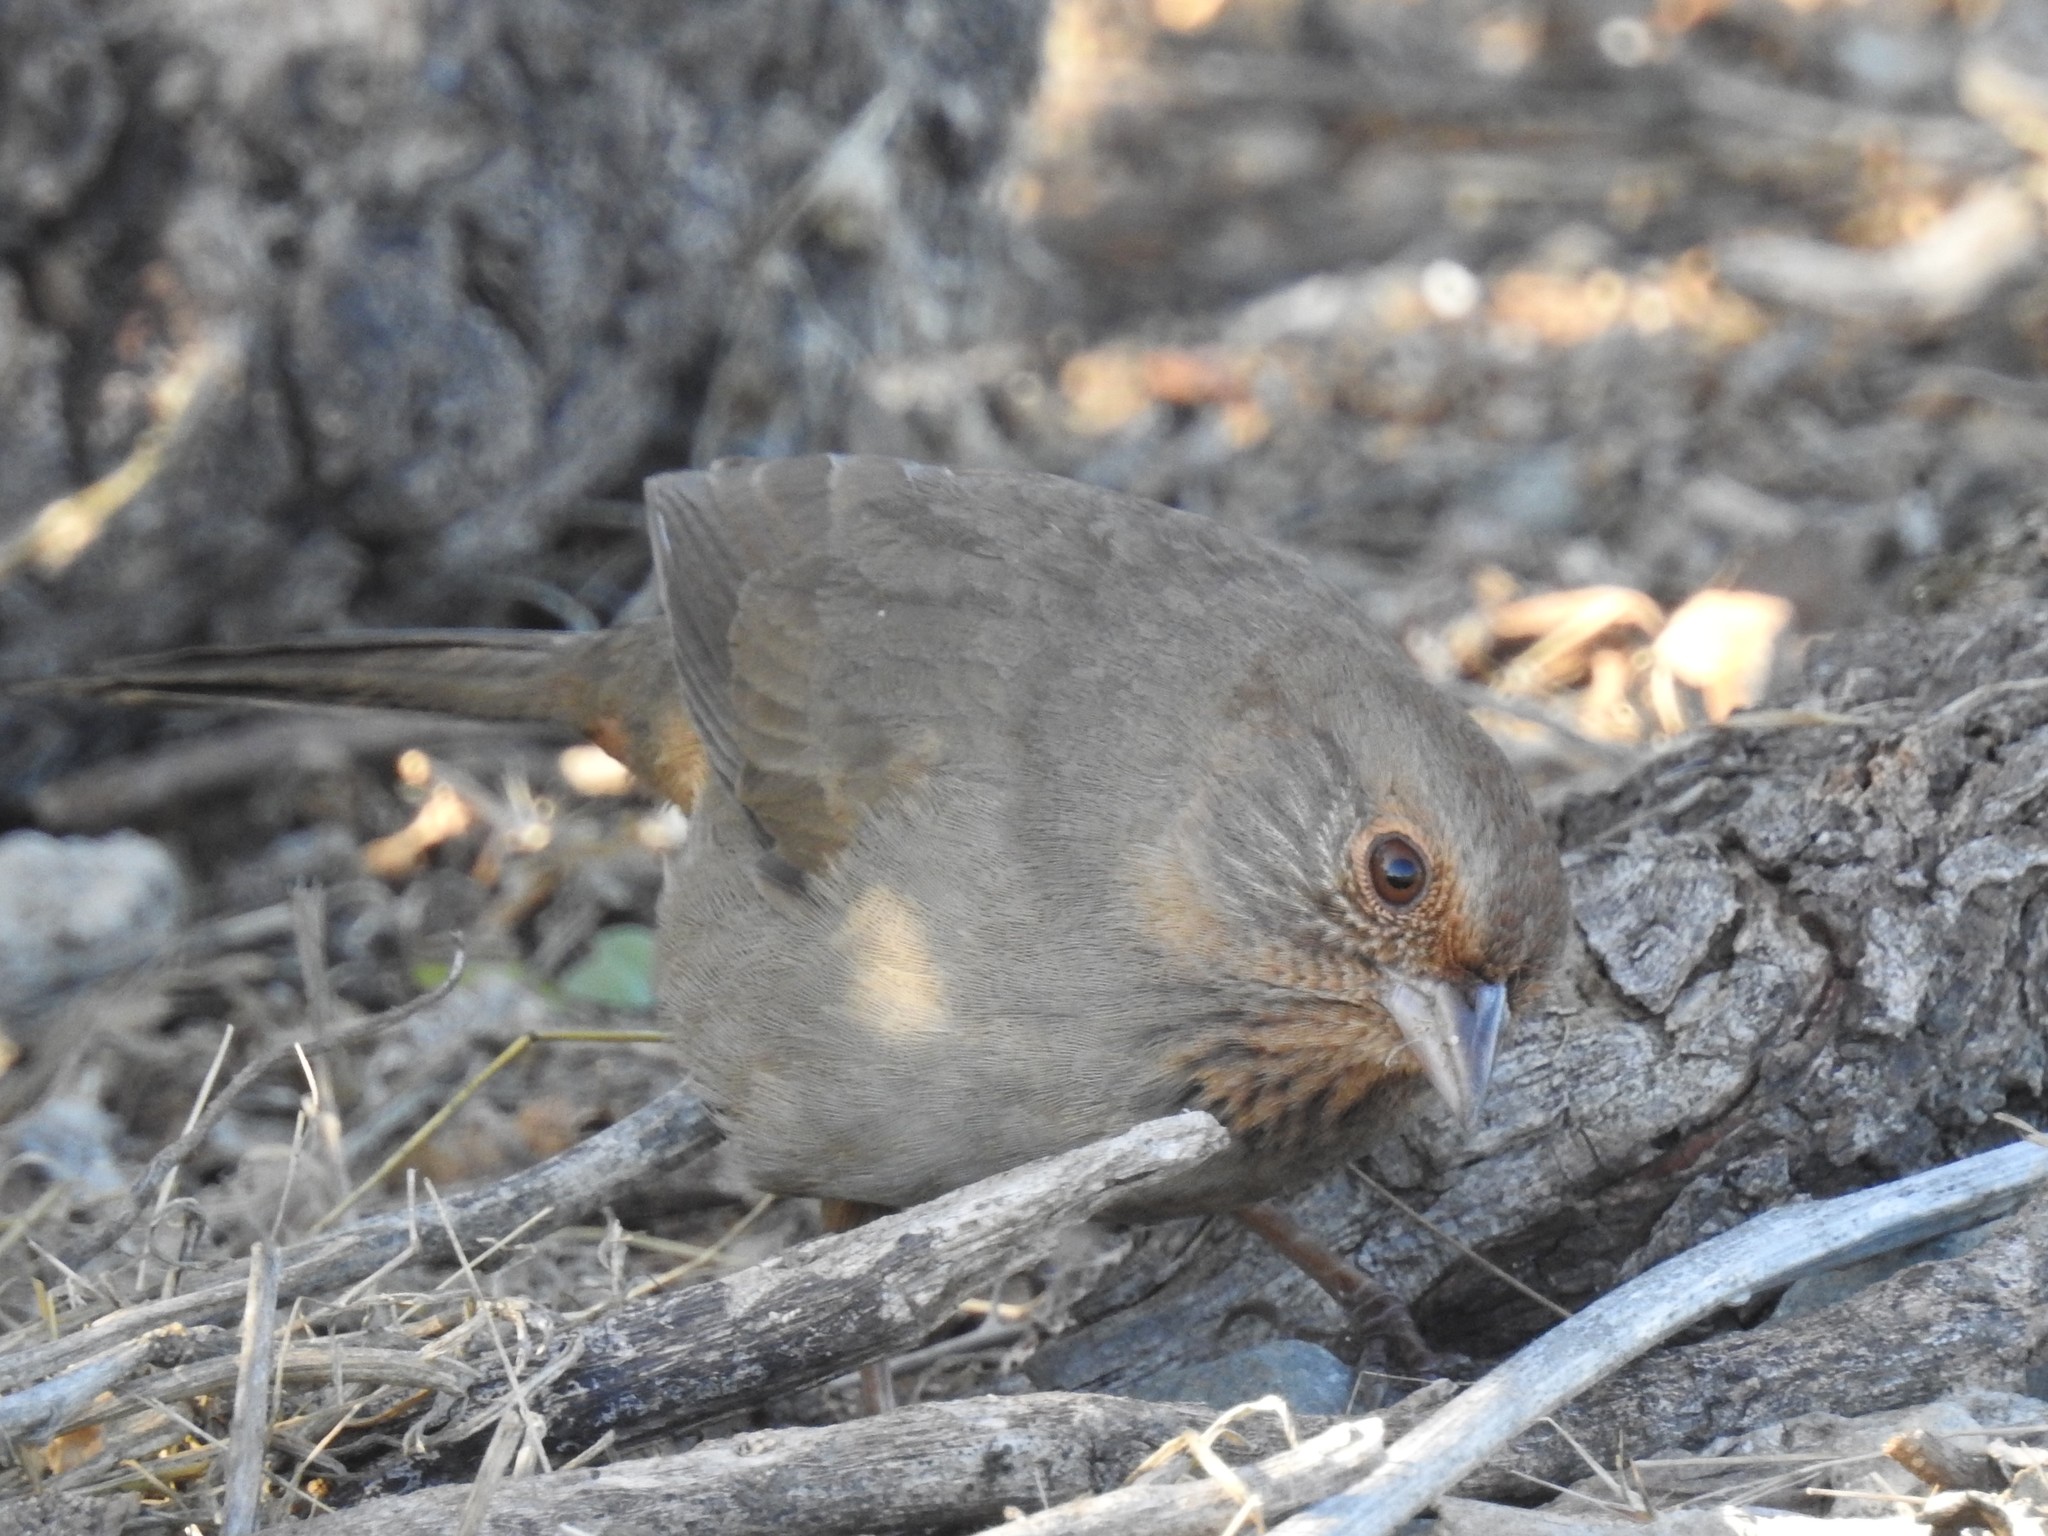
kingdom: Animalia
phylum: Chordata
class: Aves
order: Passeriformes
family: Passerellidae
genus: Melozone
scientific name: Melozone crissalis
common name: California towhee
